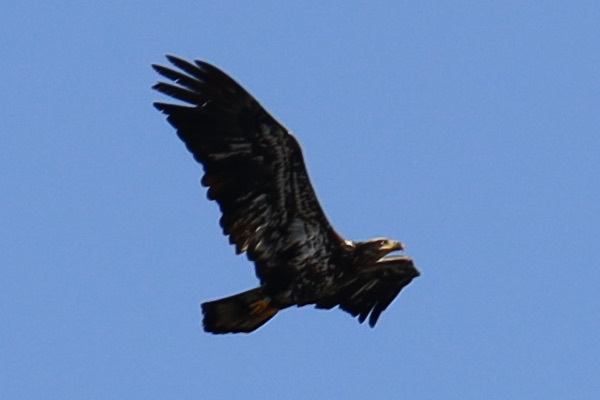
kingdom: Animalia
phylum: Chordata
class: Aves
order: Accipitriformes
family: Accipitridae
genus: Haliaeetus
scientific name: Haliaeetus leucocephalus
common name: Bald eagle
